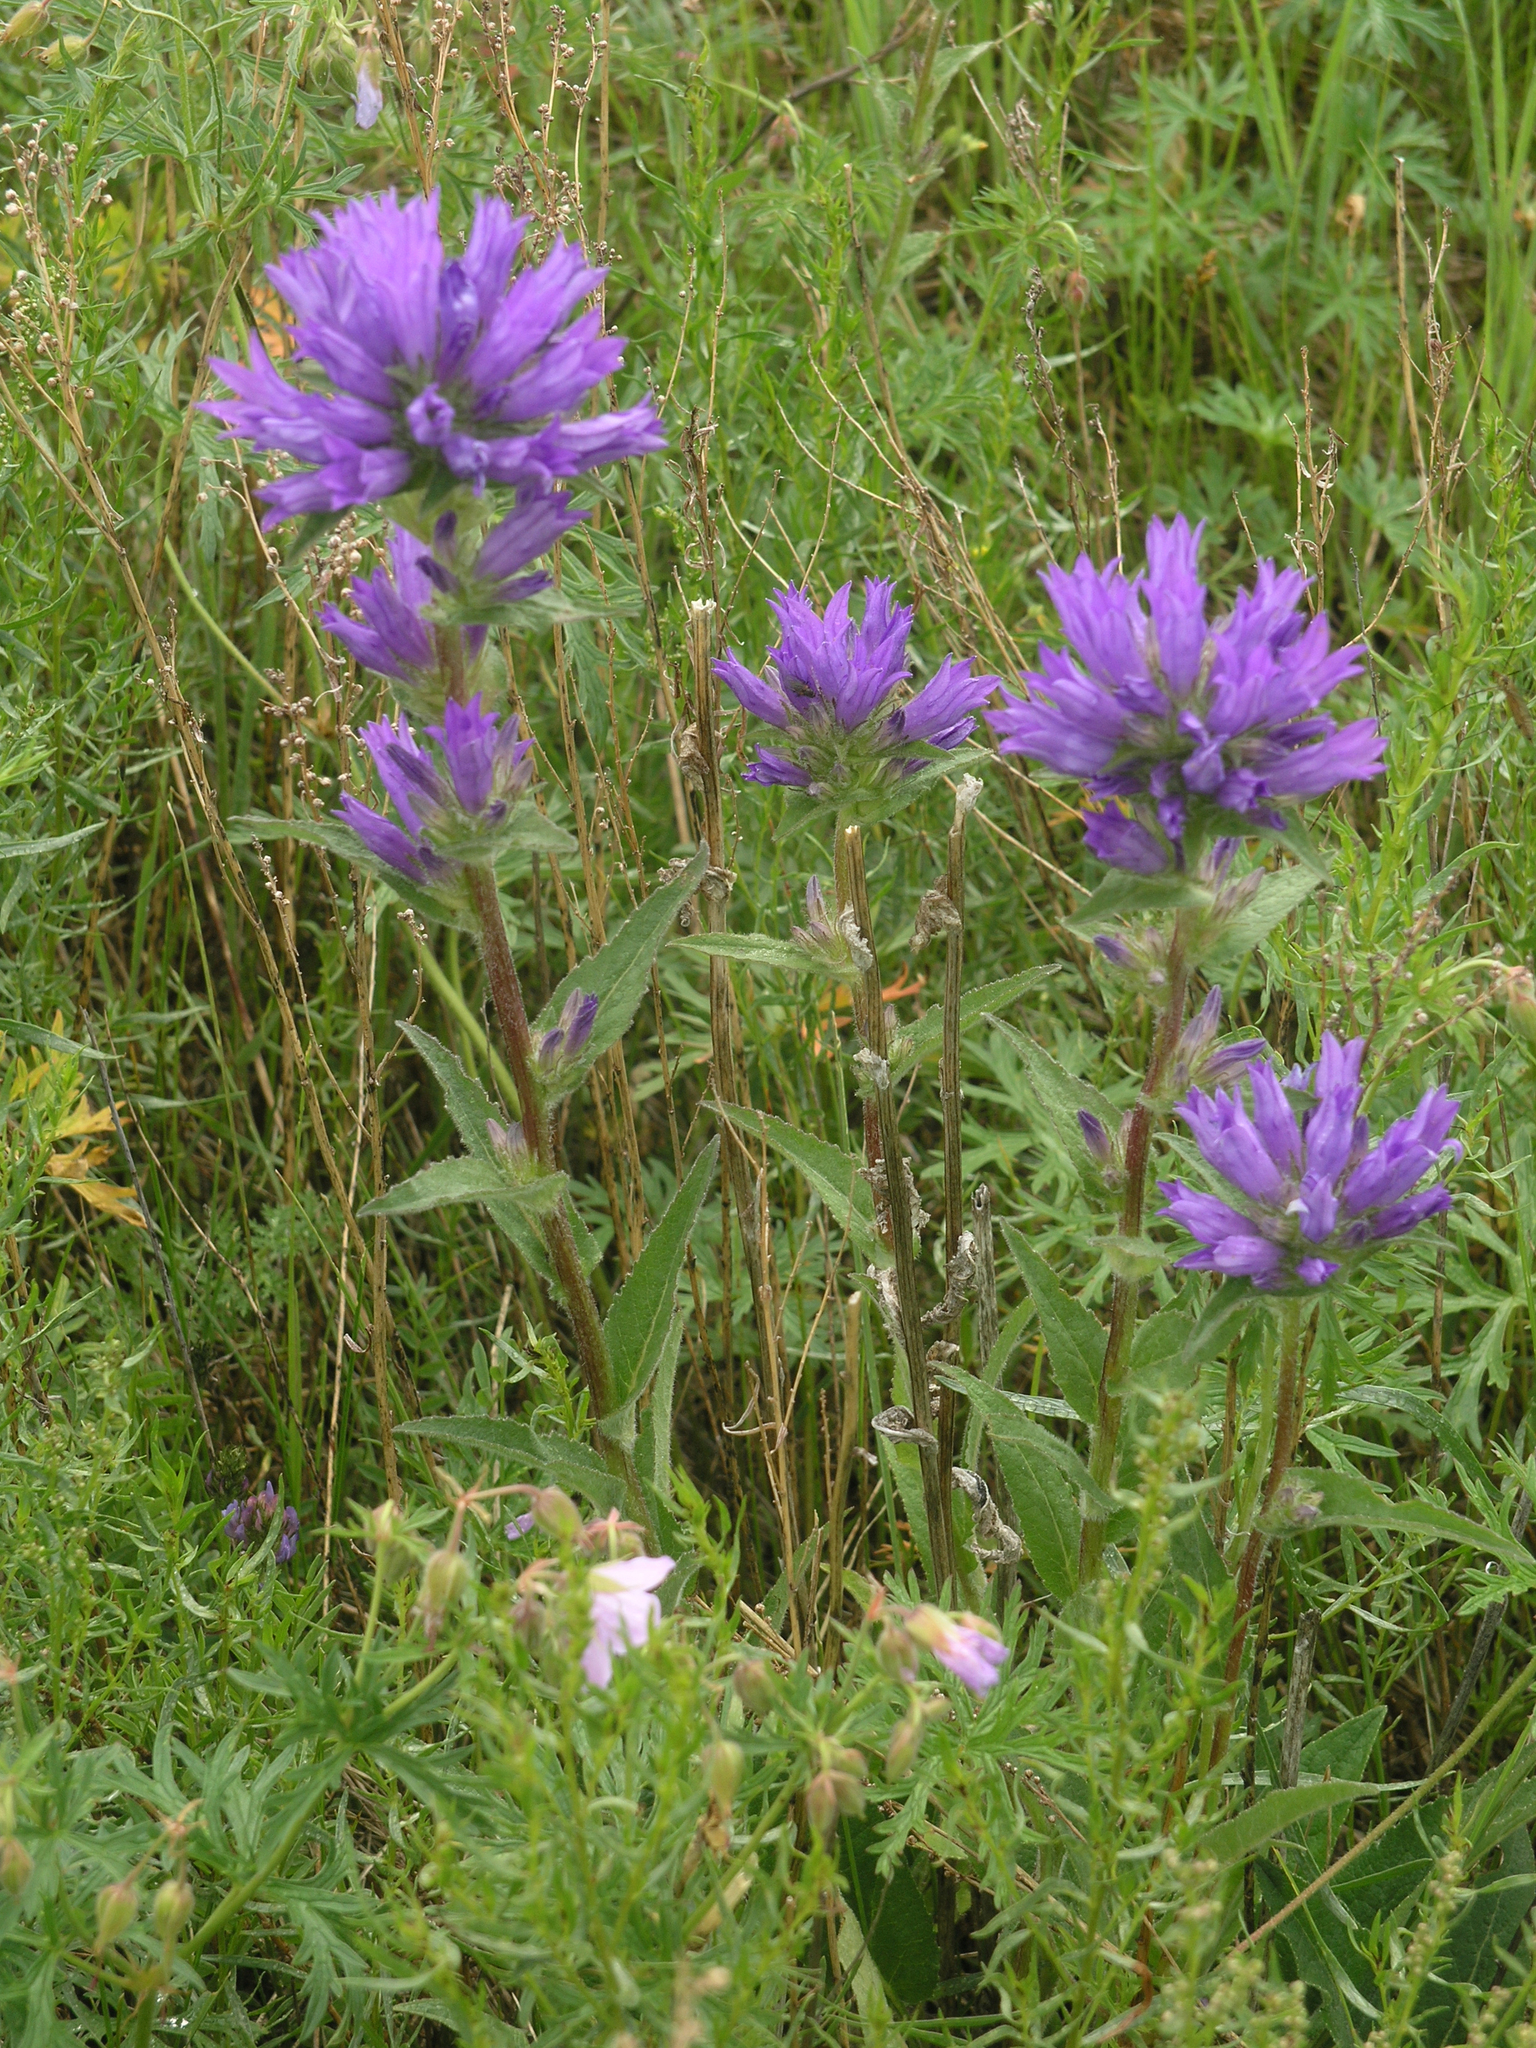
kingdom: Plantae
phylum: Tracheophyta
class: Magnoliopsida
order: Asterales
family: Campanulaceae
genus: Campanula
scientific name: Campanula glomerata
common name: Clustered bellflower
